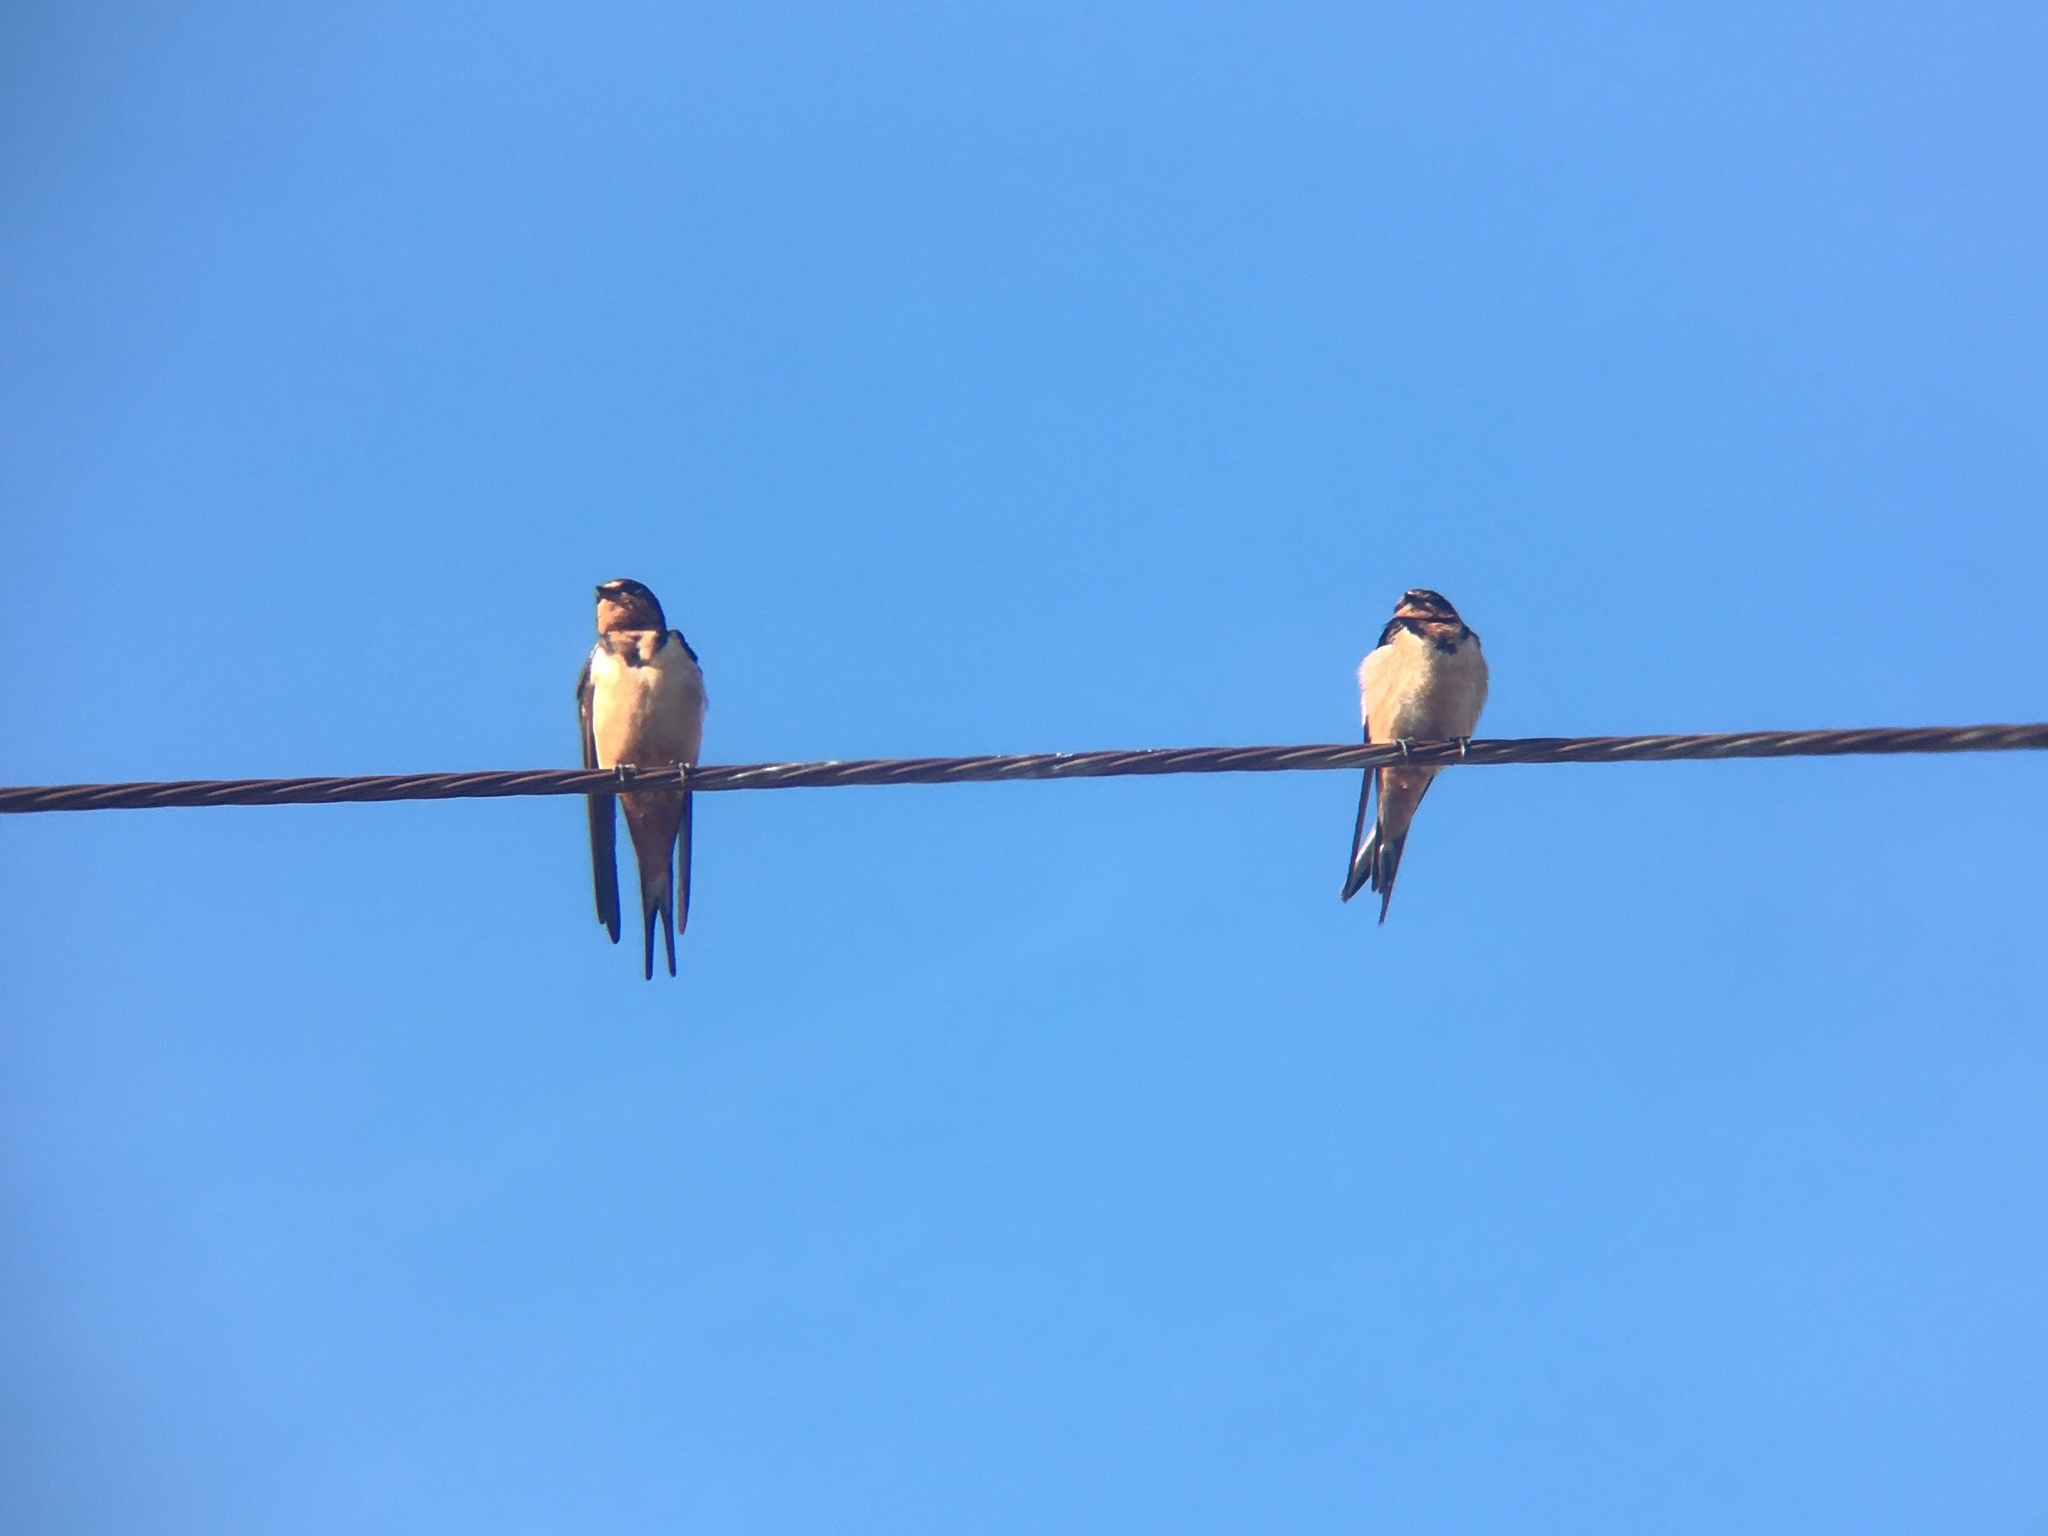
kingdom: Animalia
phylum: Chordata
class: Aves
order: Passeriformes
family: Hirundinidae
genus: Hirundo
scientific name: Hirundo rustica
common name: Barn swallow
